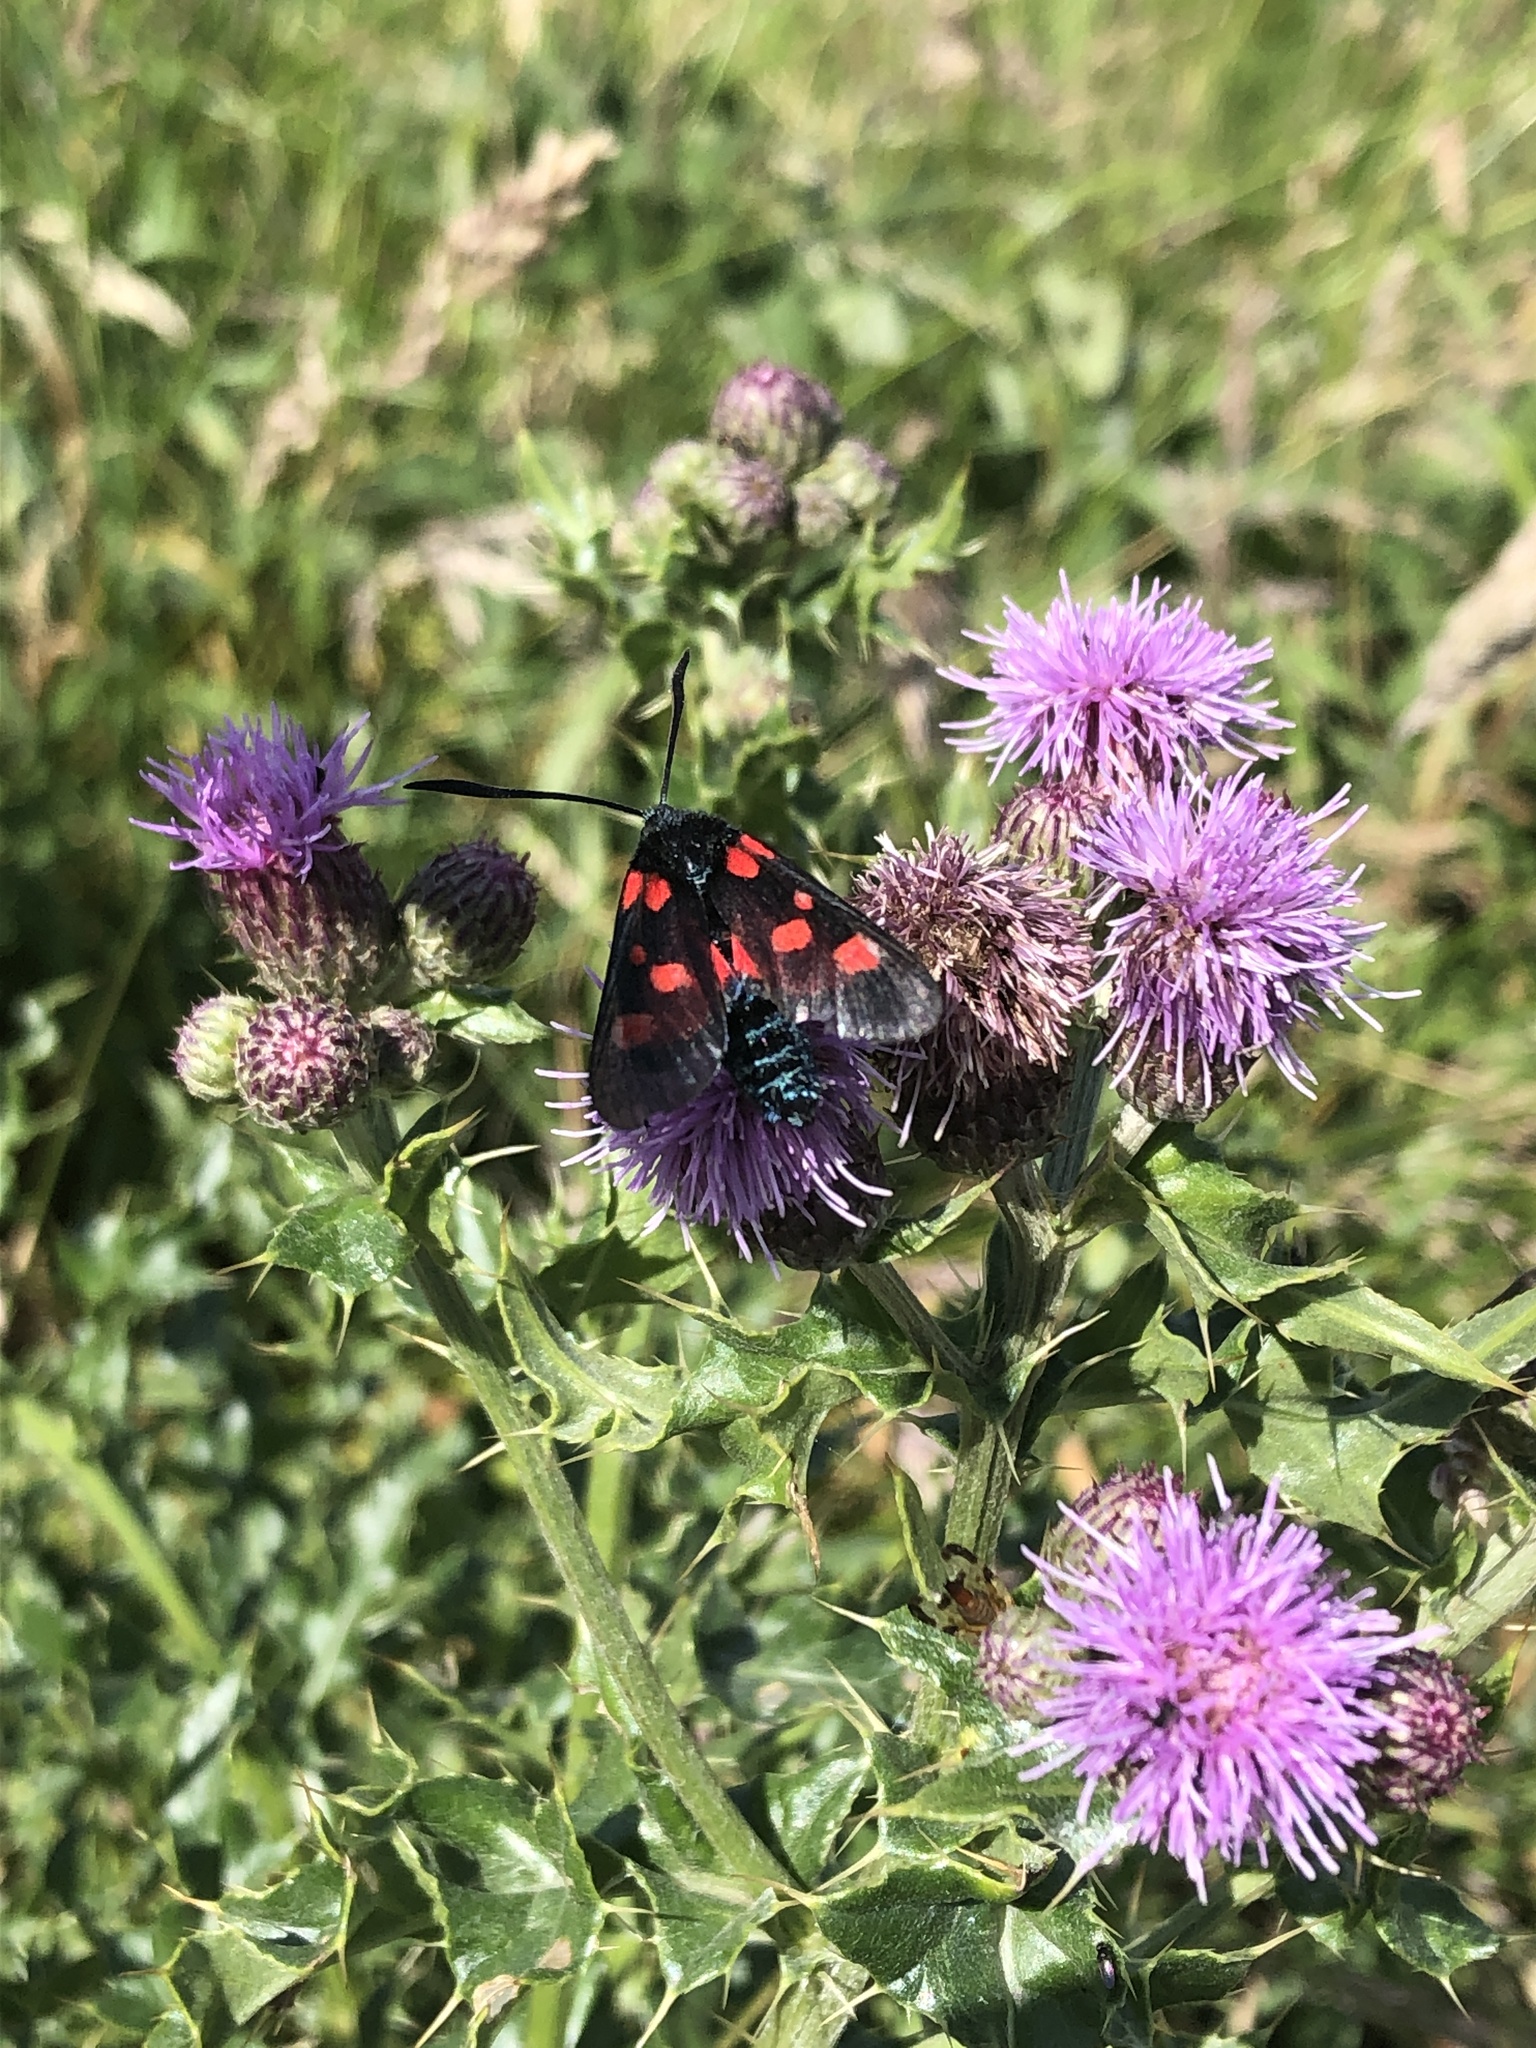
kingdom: Animalia
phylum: Arthropoda
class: Insecta
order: Lepidoptera
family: Zygaenidae
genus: Zygaena
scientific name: Zygaena lonicerae
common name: Narrow-bordered five-spot burnet
